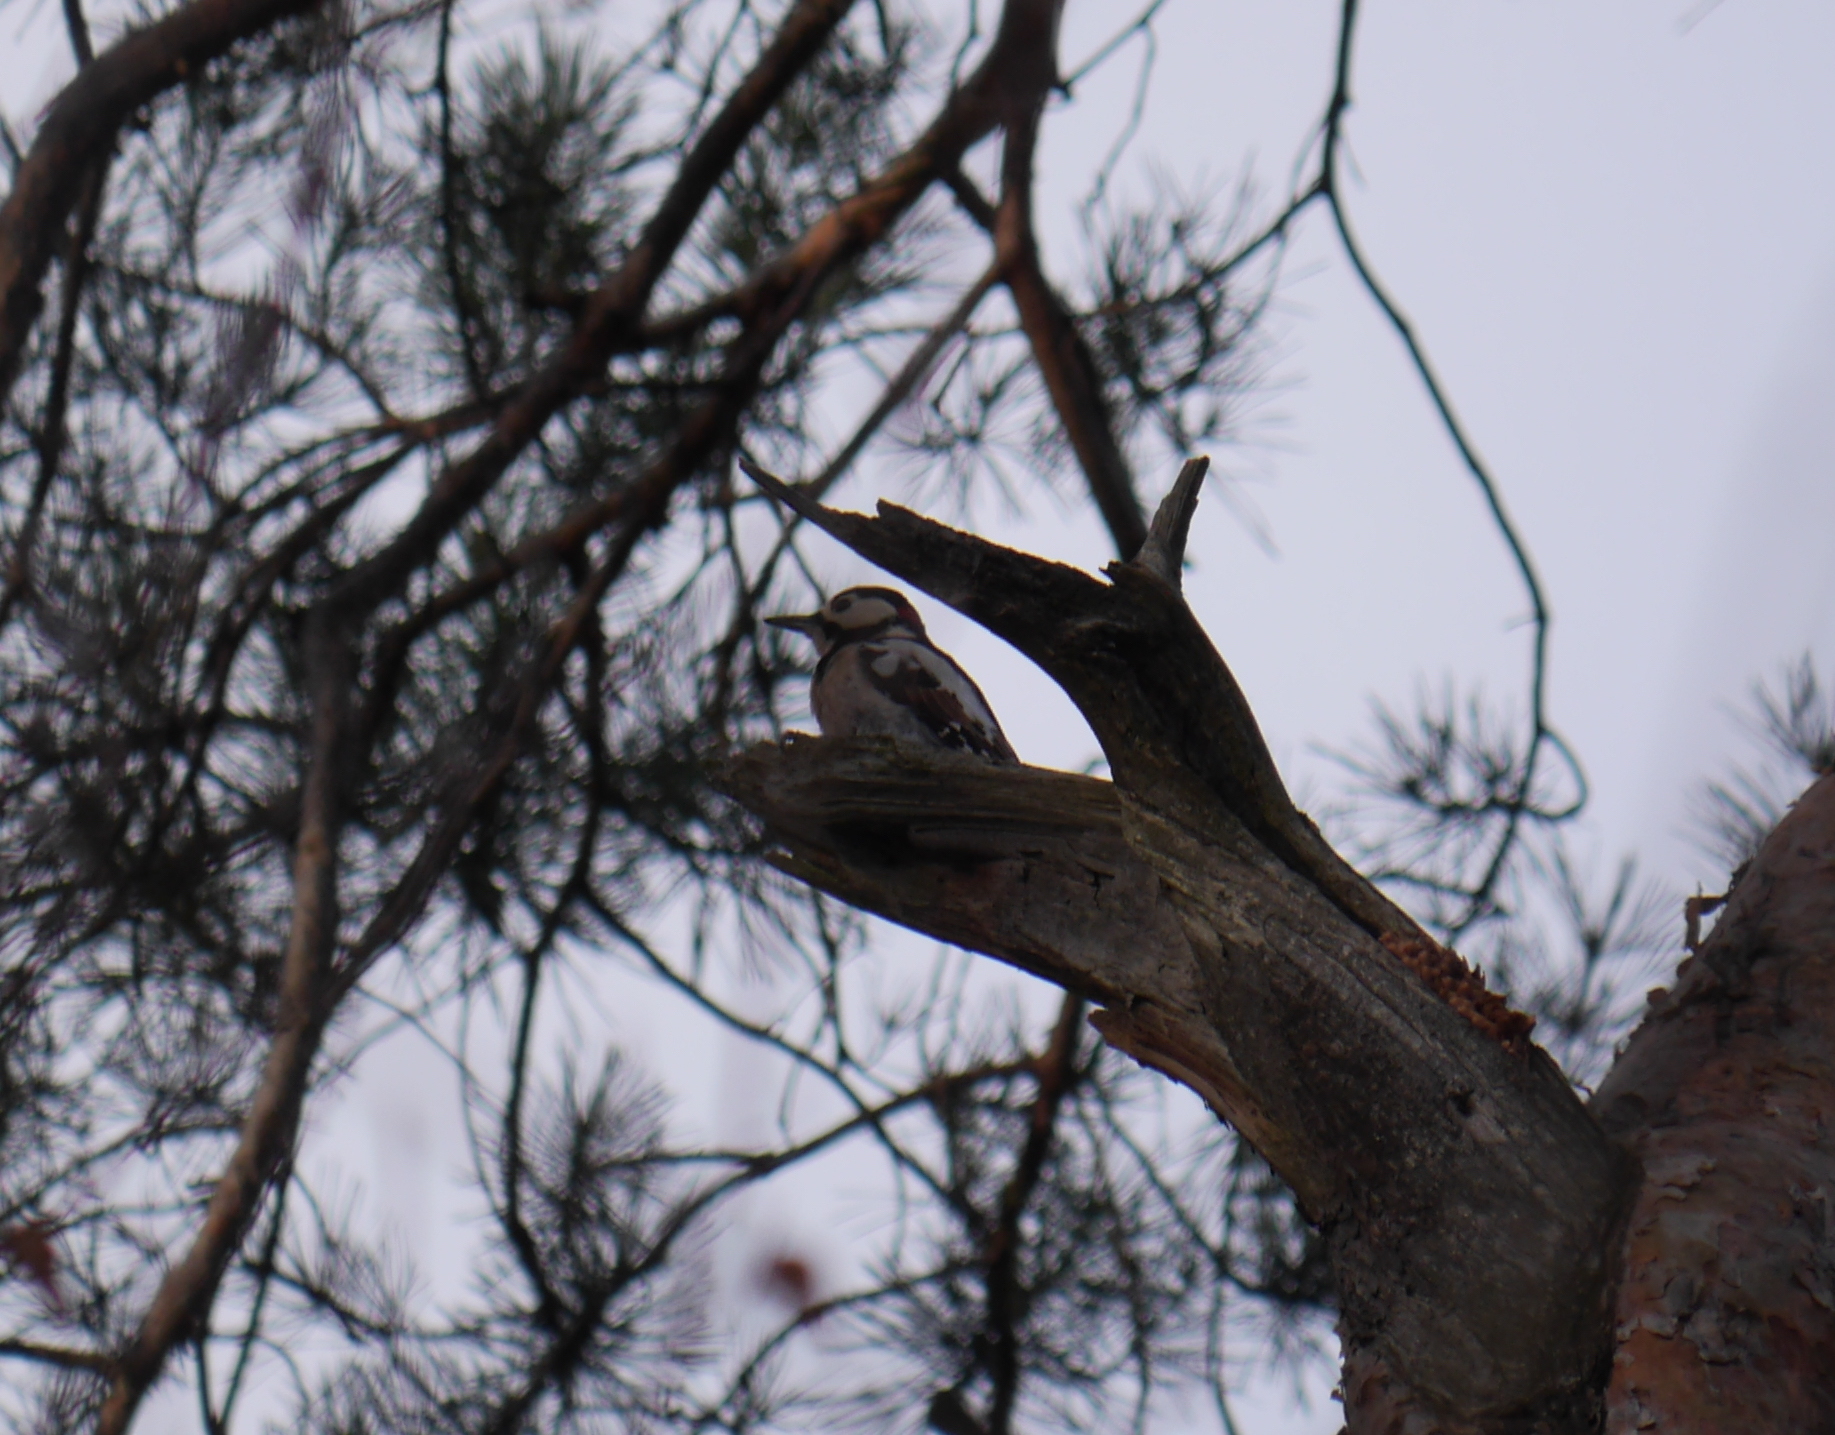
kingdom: Animalia
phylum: Chordata
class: Aves
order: Piciformes
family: Picidae
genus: Dendrocopos
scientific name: Dendrocopos major
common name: Great spotted woodpecker
